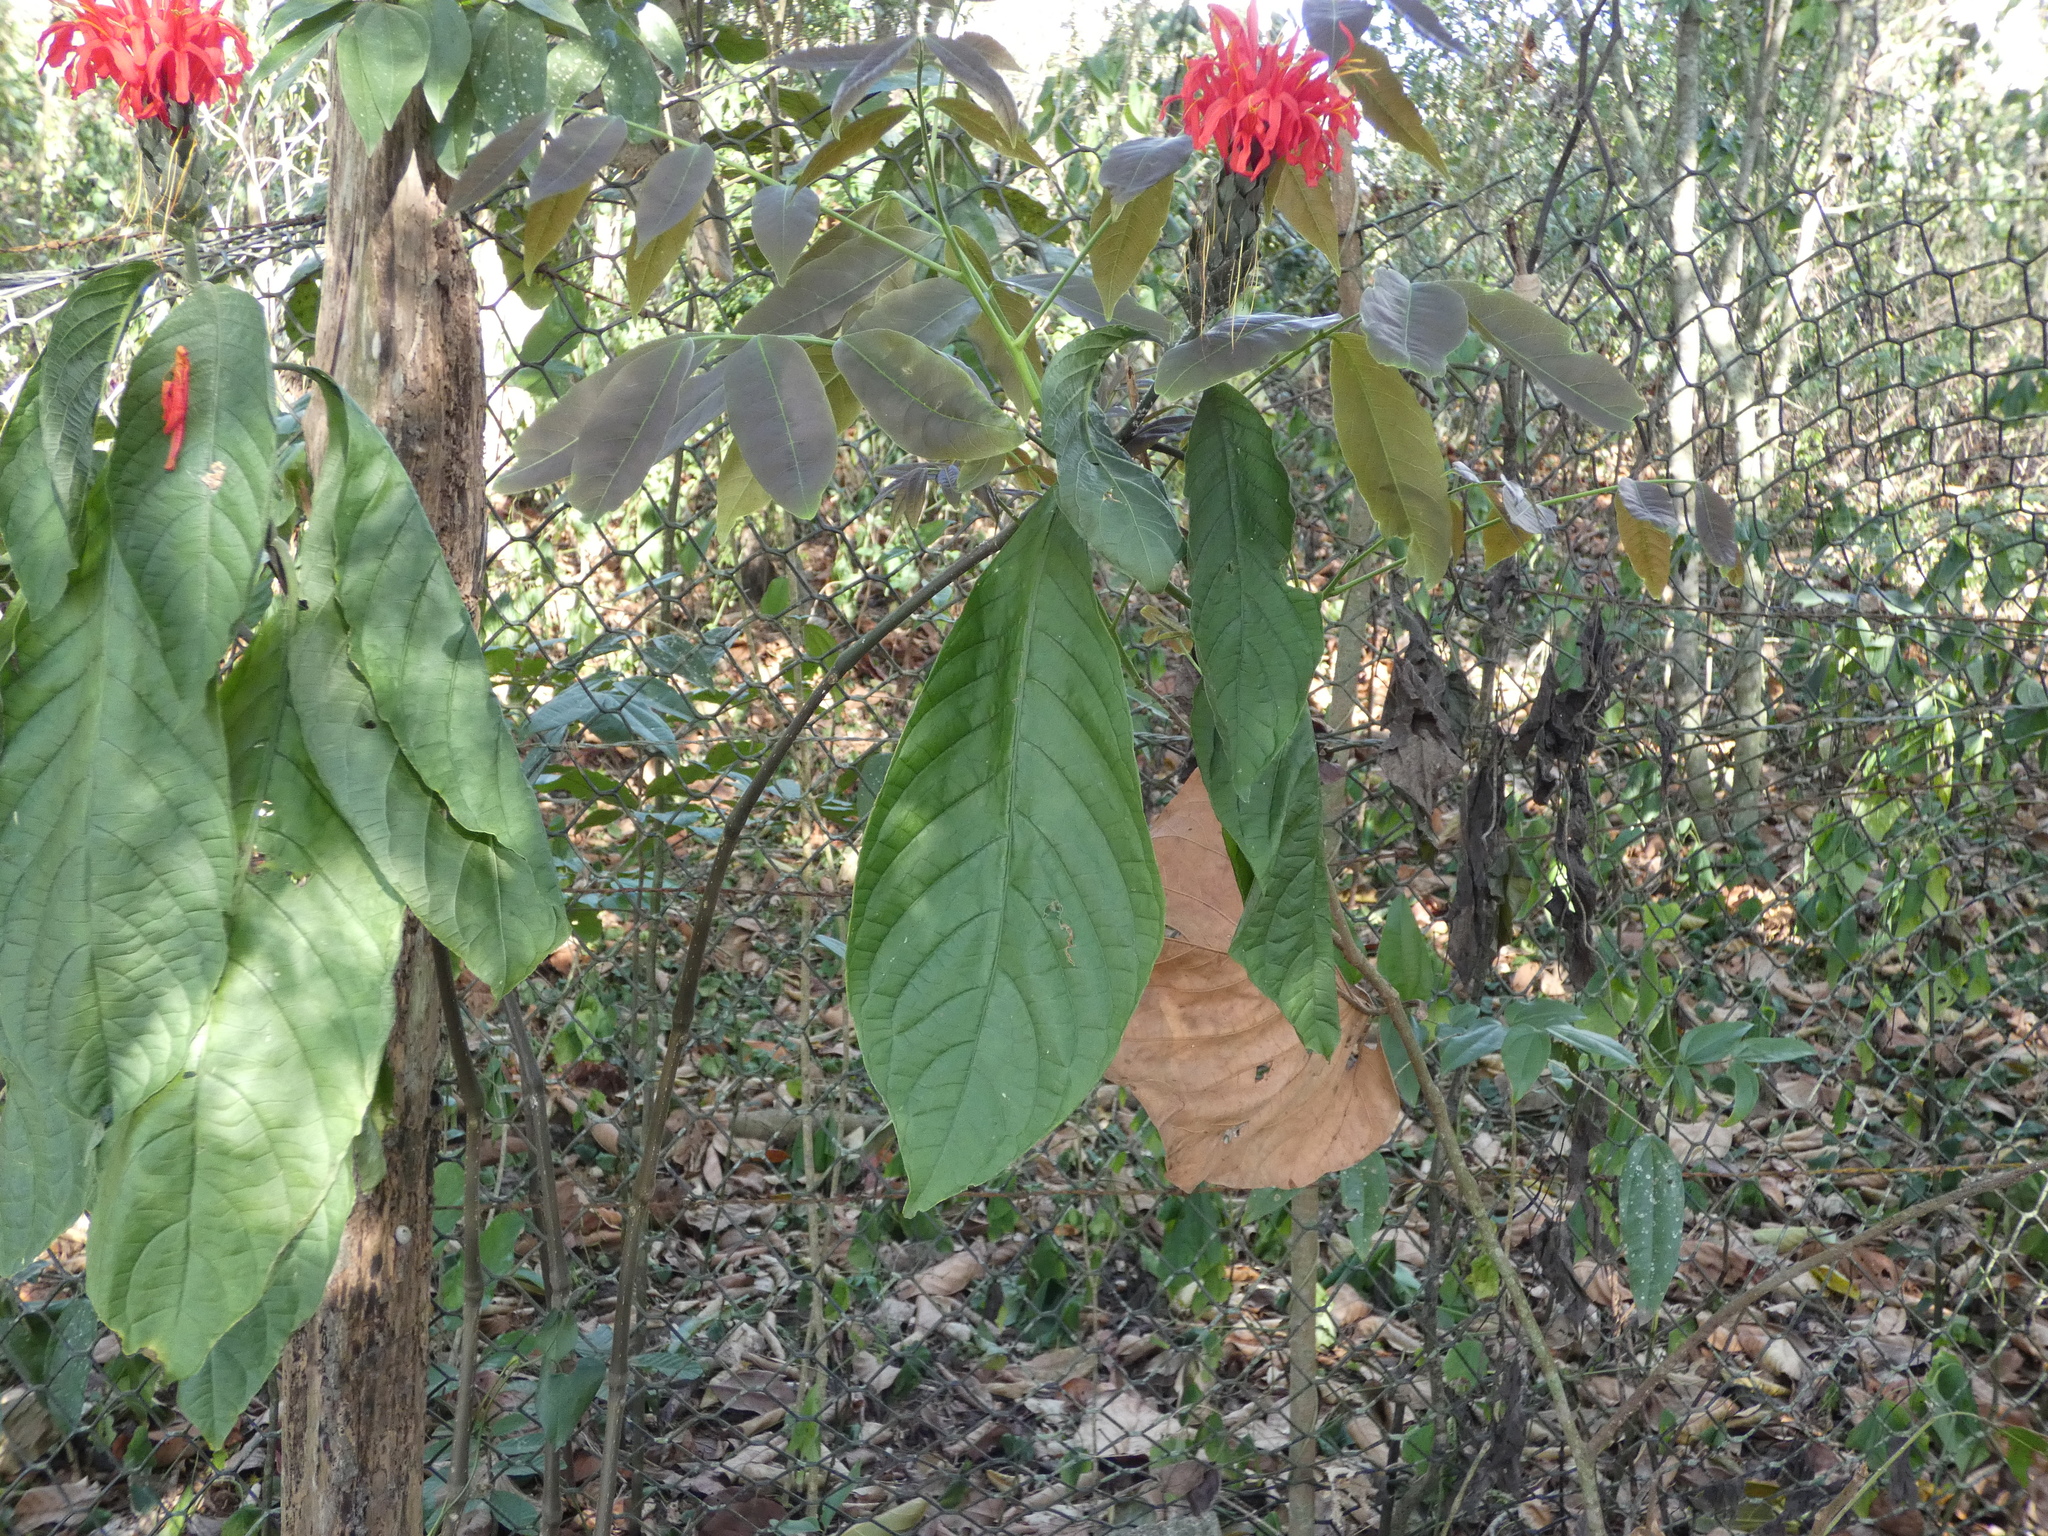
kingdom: Plantae
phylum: Tracheophyta
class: Magnoliopsida
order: Lamiales
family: Acanthaceae
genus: Pachystachys
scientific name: Pachystachys spicata
